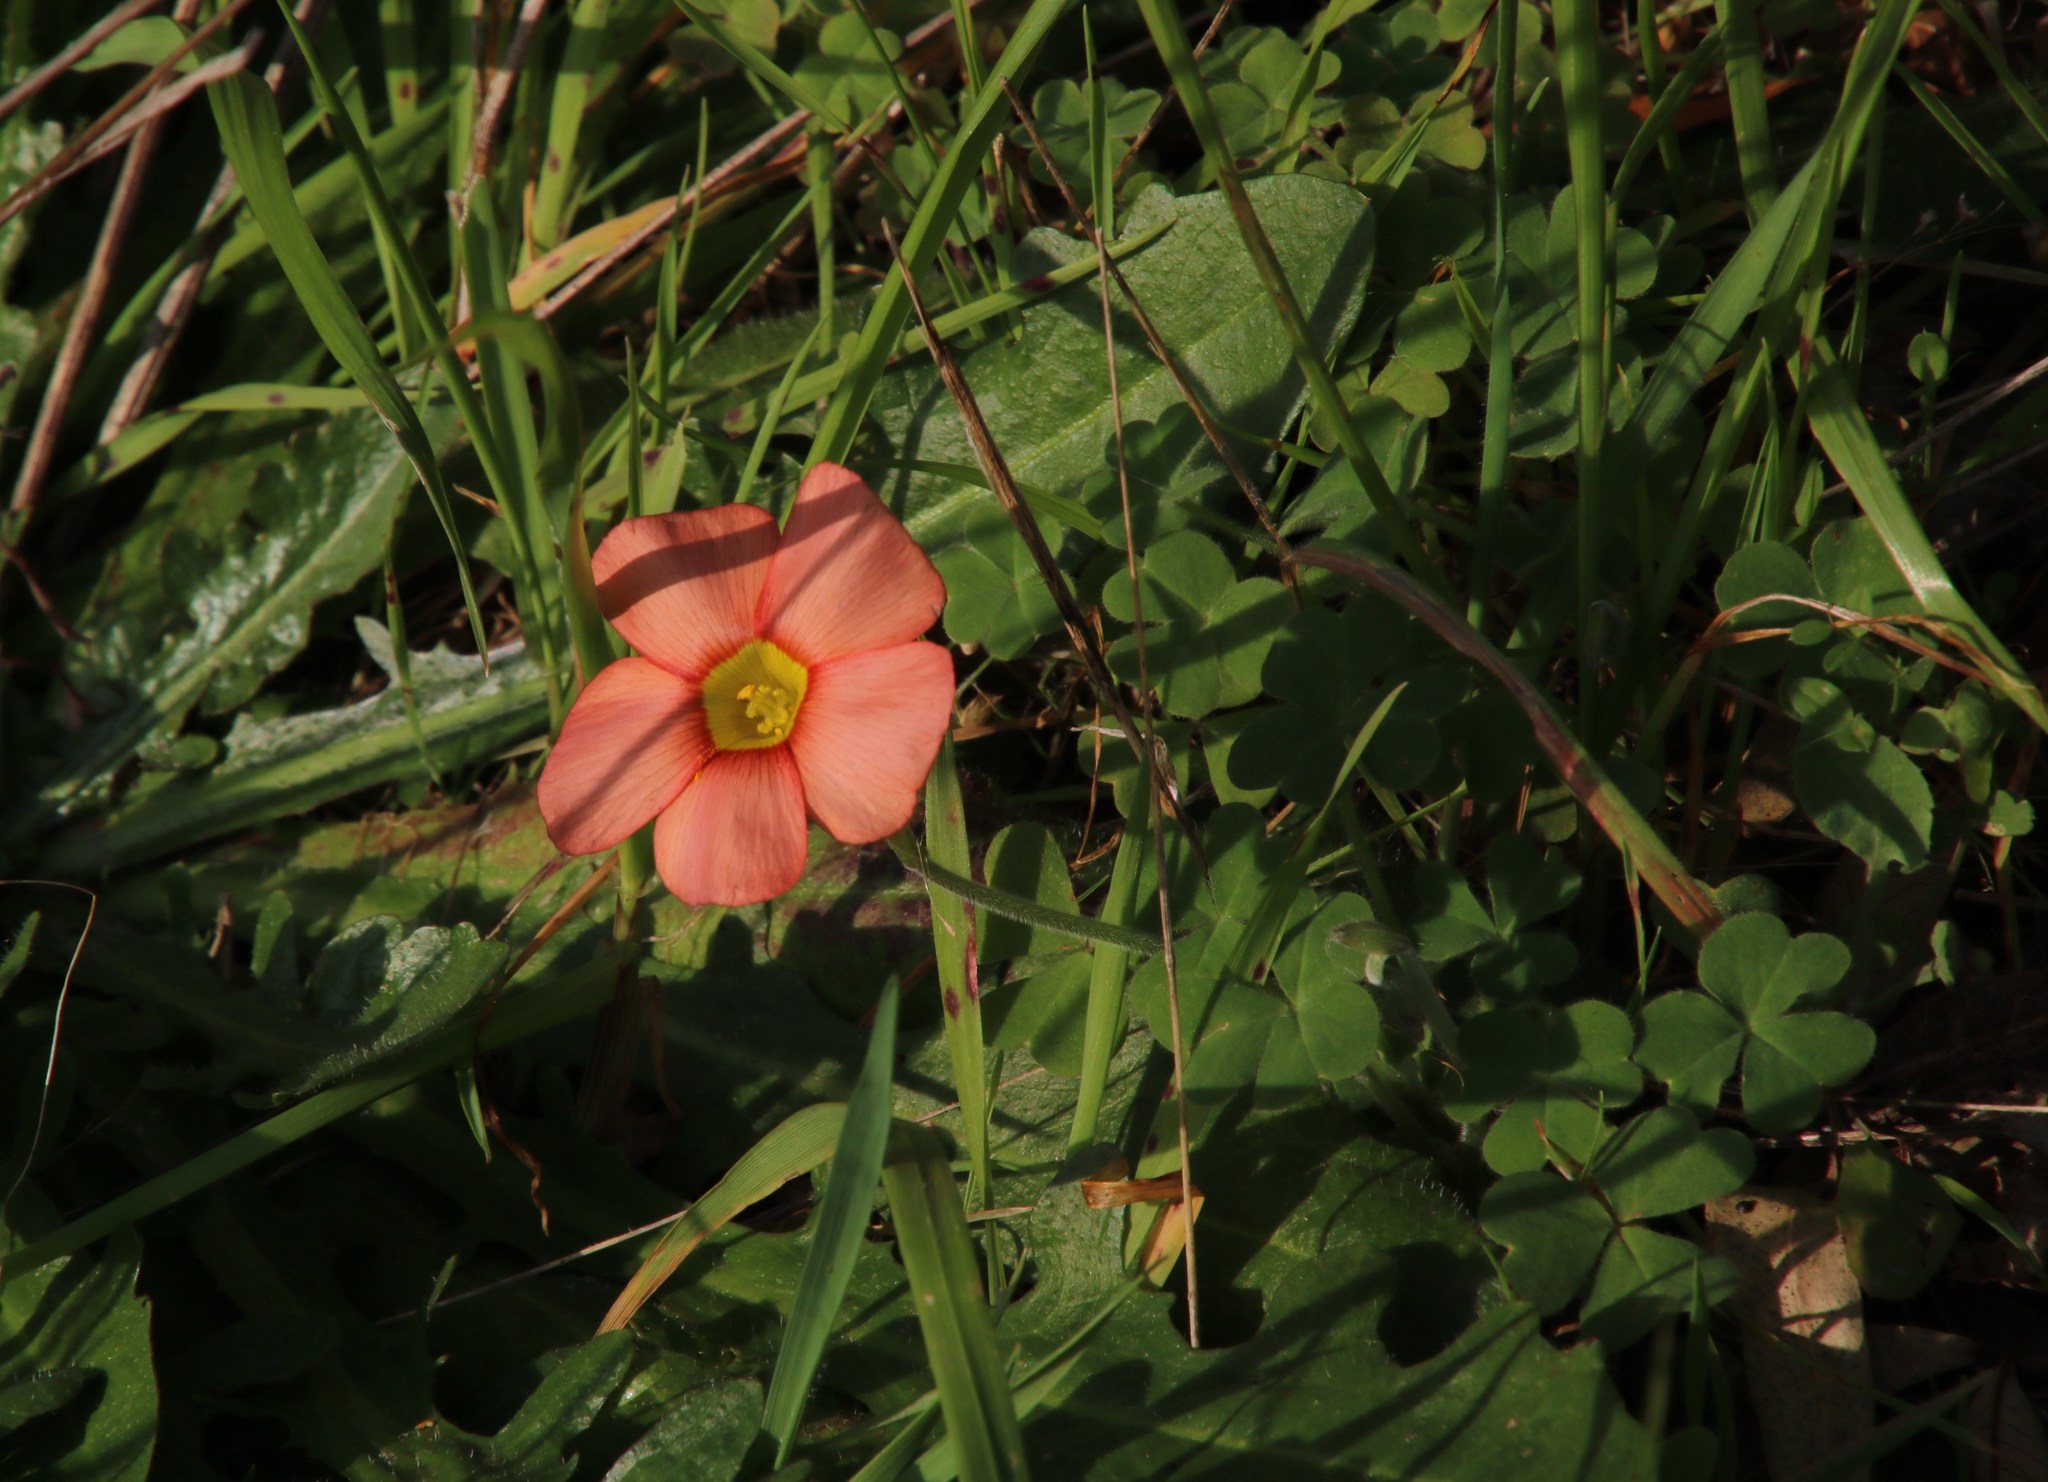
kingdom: Plantae
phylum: Tracheophyta
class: Magnoliopsida
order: Oxalidales
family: Oxalidaceae
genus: Oxalis
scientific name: Oxalis obtusa
